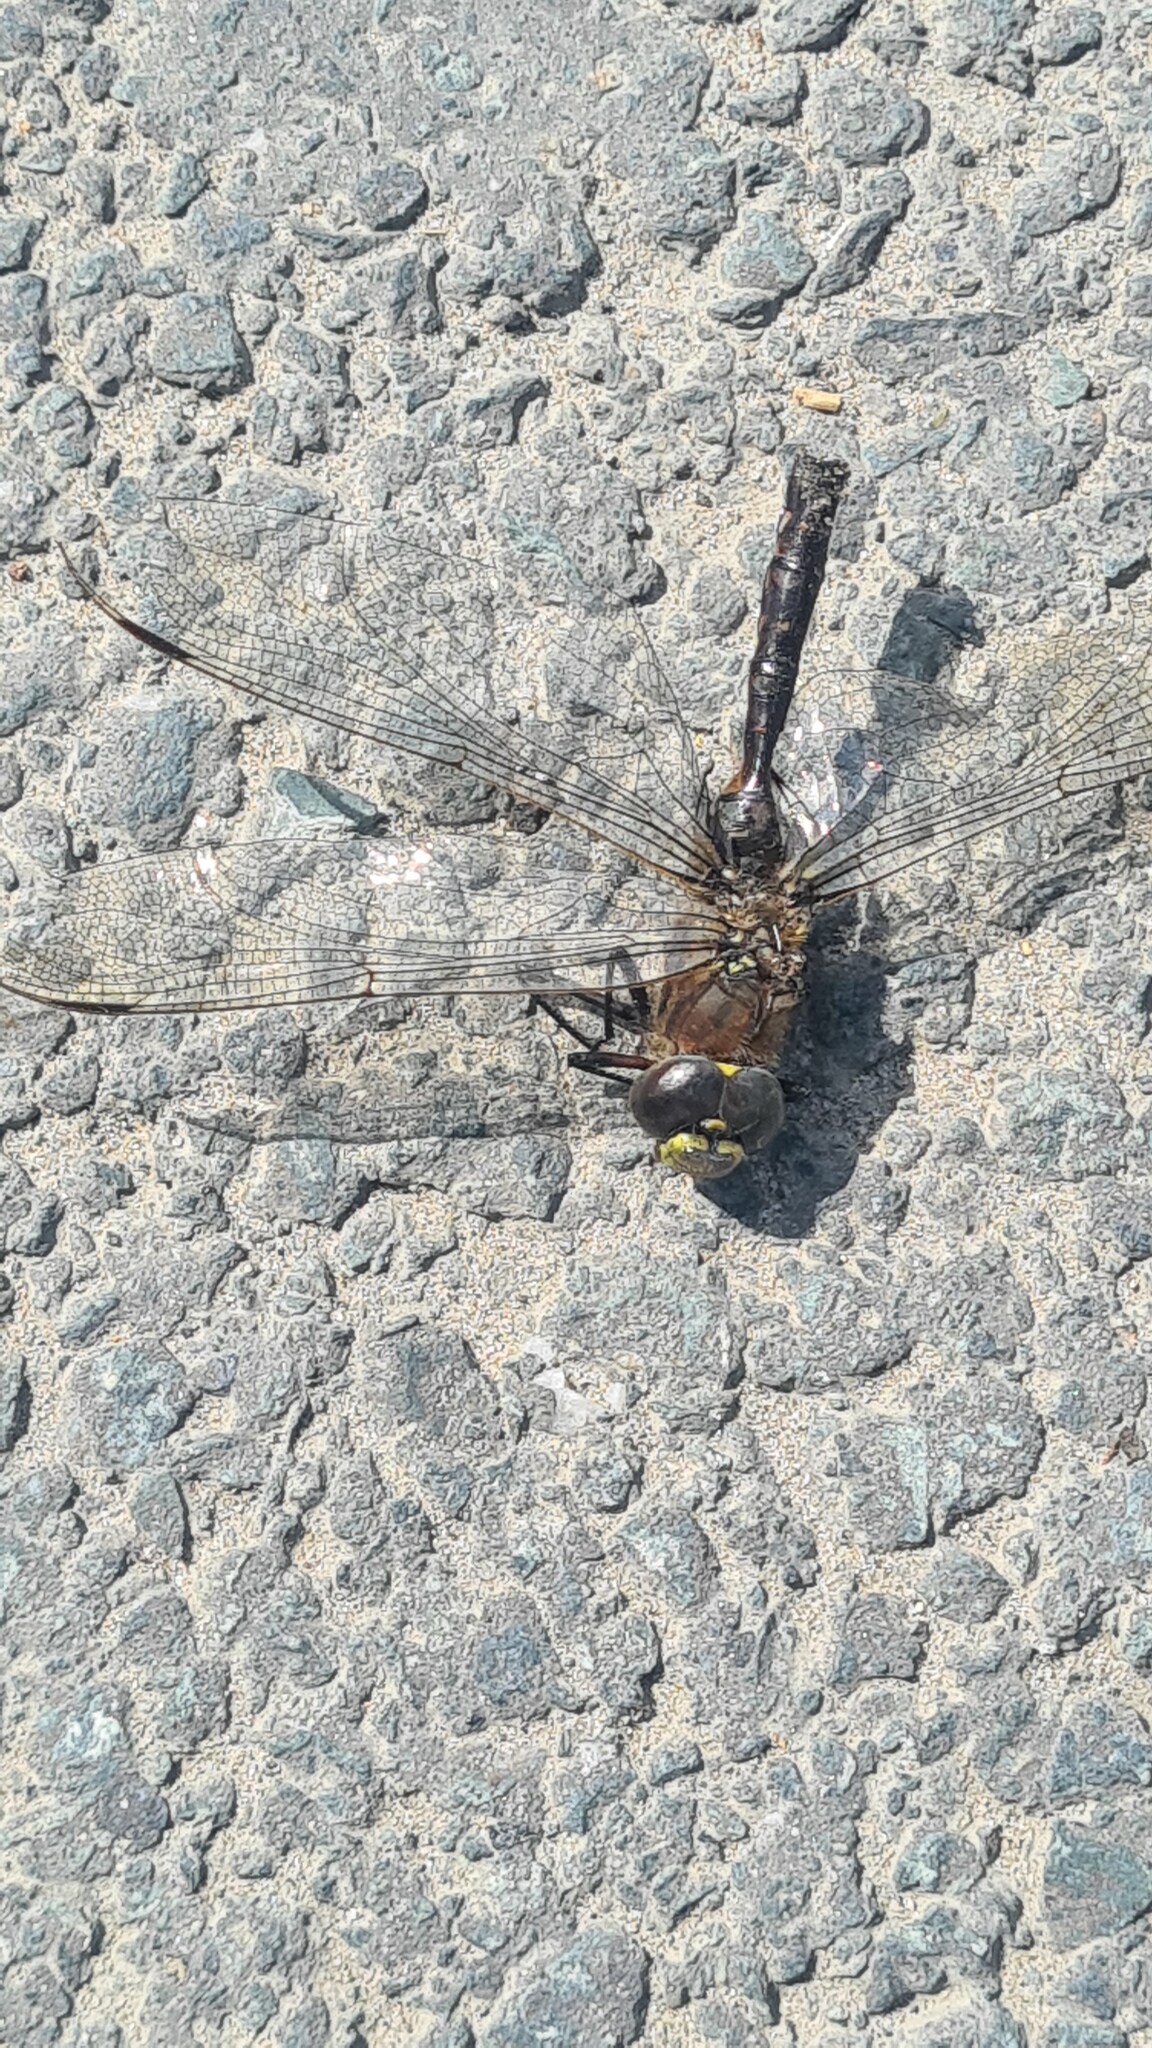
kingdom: Animalia
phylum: Arthropoda
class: Insecta
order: Odonata
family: Aeshnidae
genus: Aeshna
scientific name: Aeshna juncea
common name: Moorland hawker
